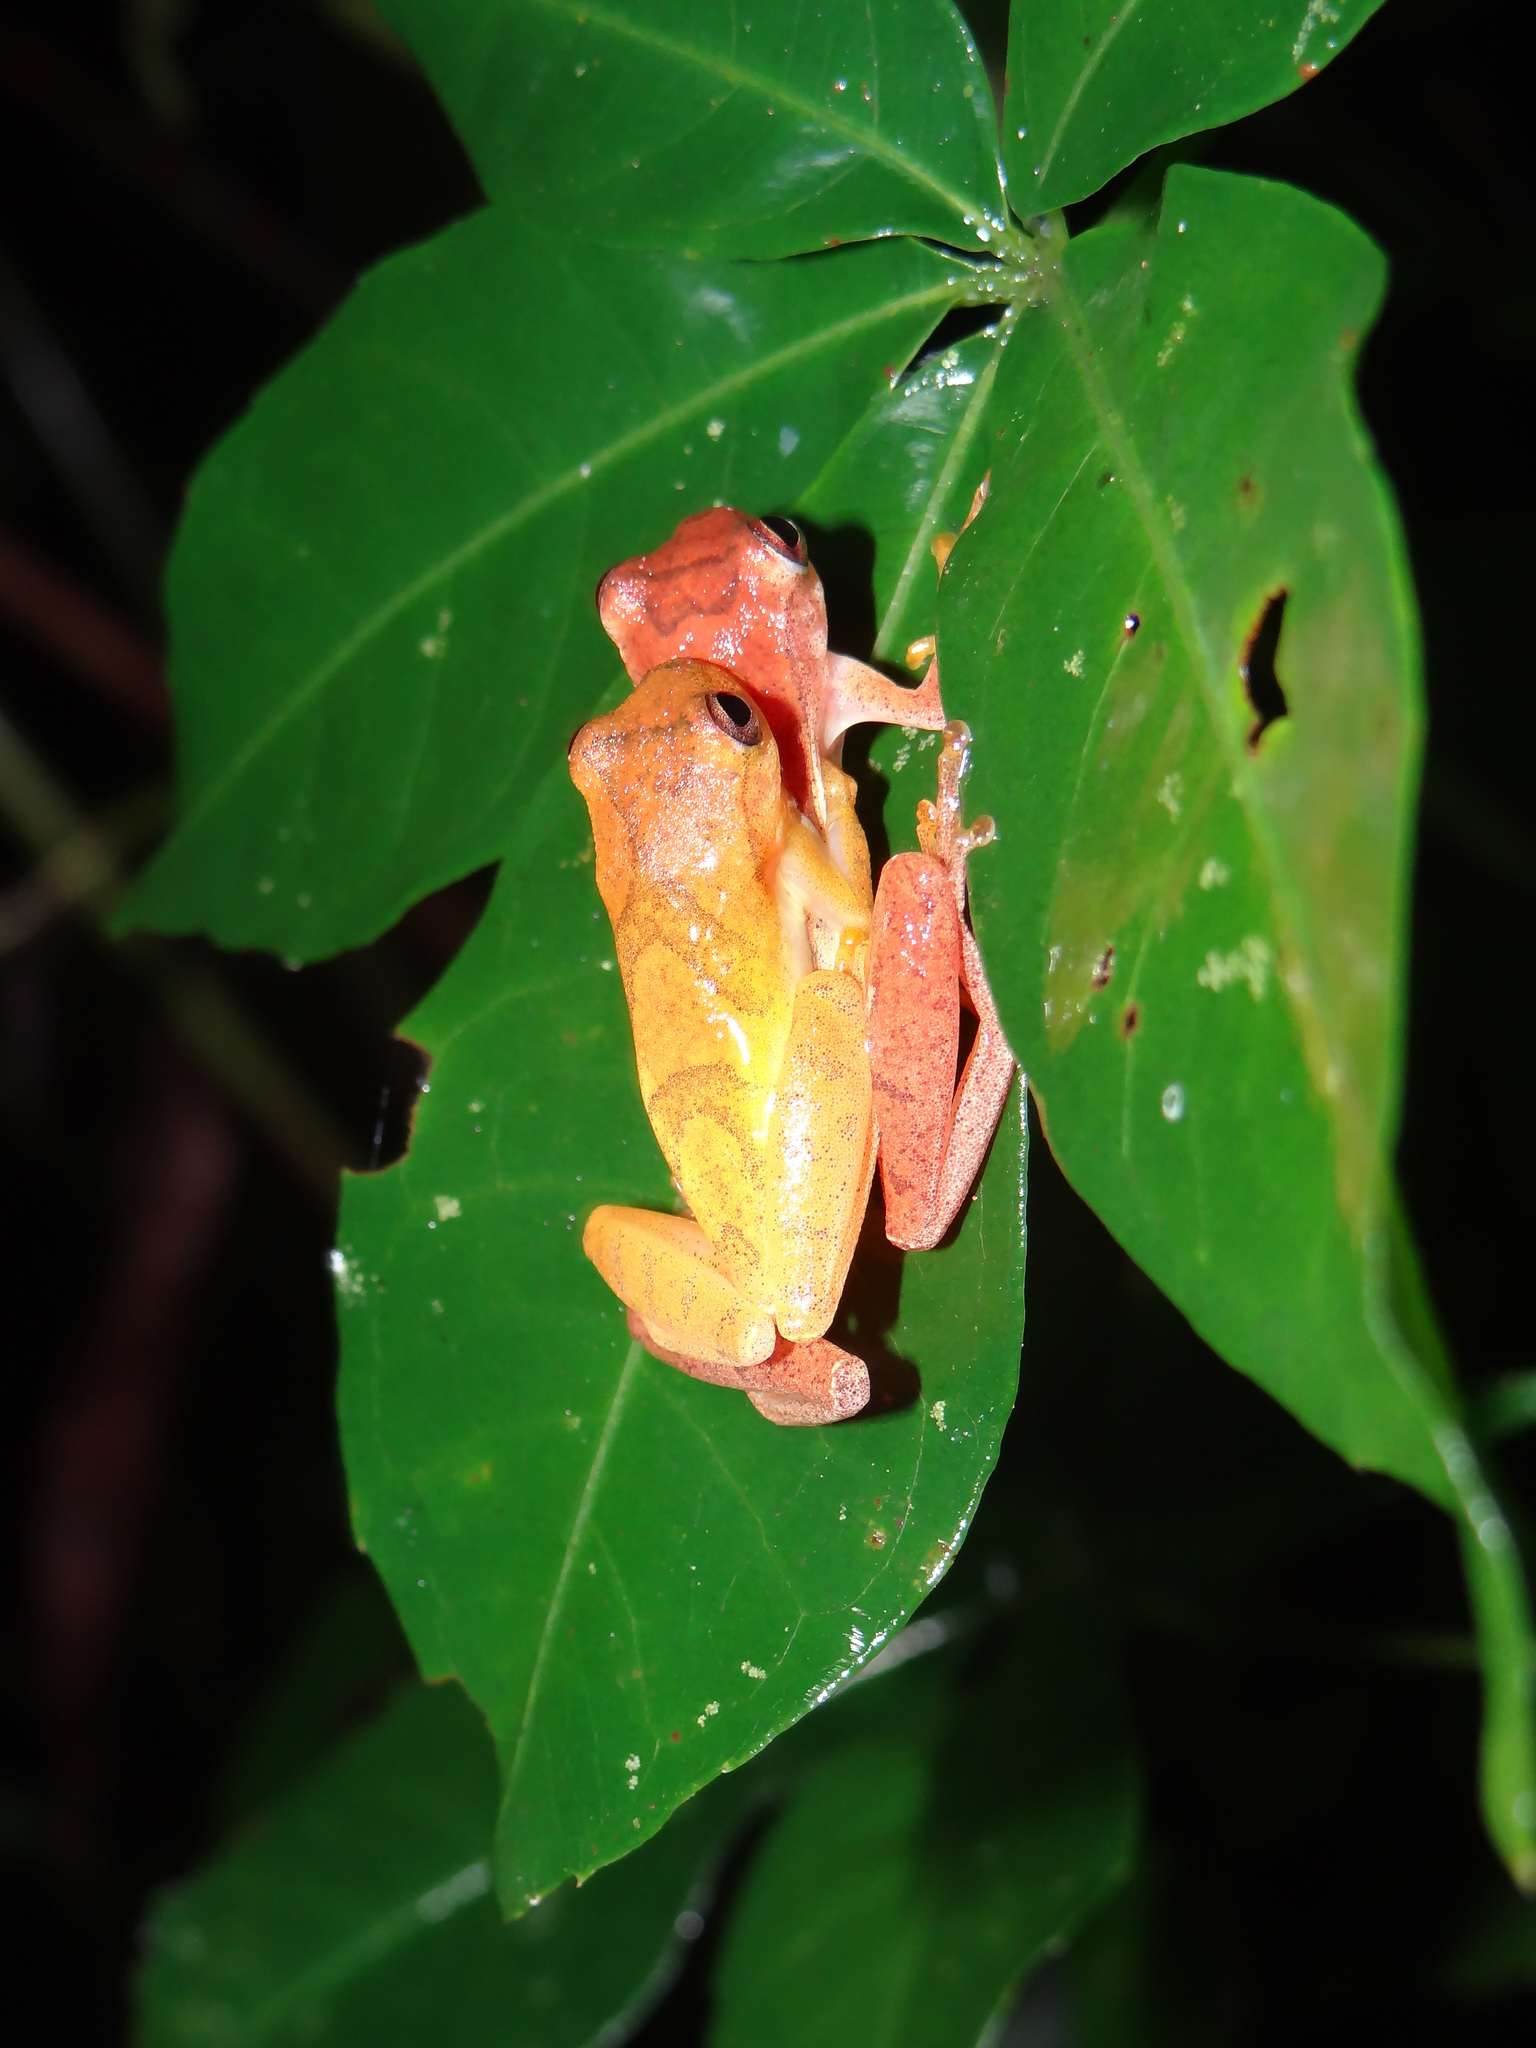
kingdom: Animalia
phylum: Chordata
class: Amphibia
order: Anura
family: Hylidae
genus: Dendropsophus
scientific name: Dendropsophus minutus
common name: Lesser treefrog
